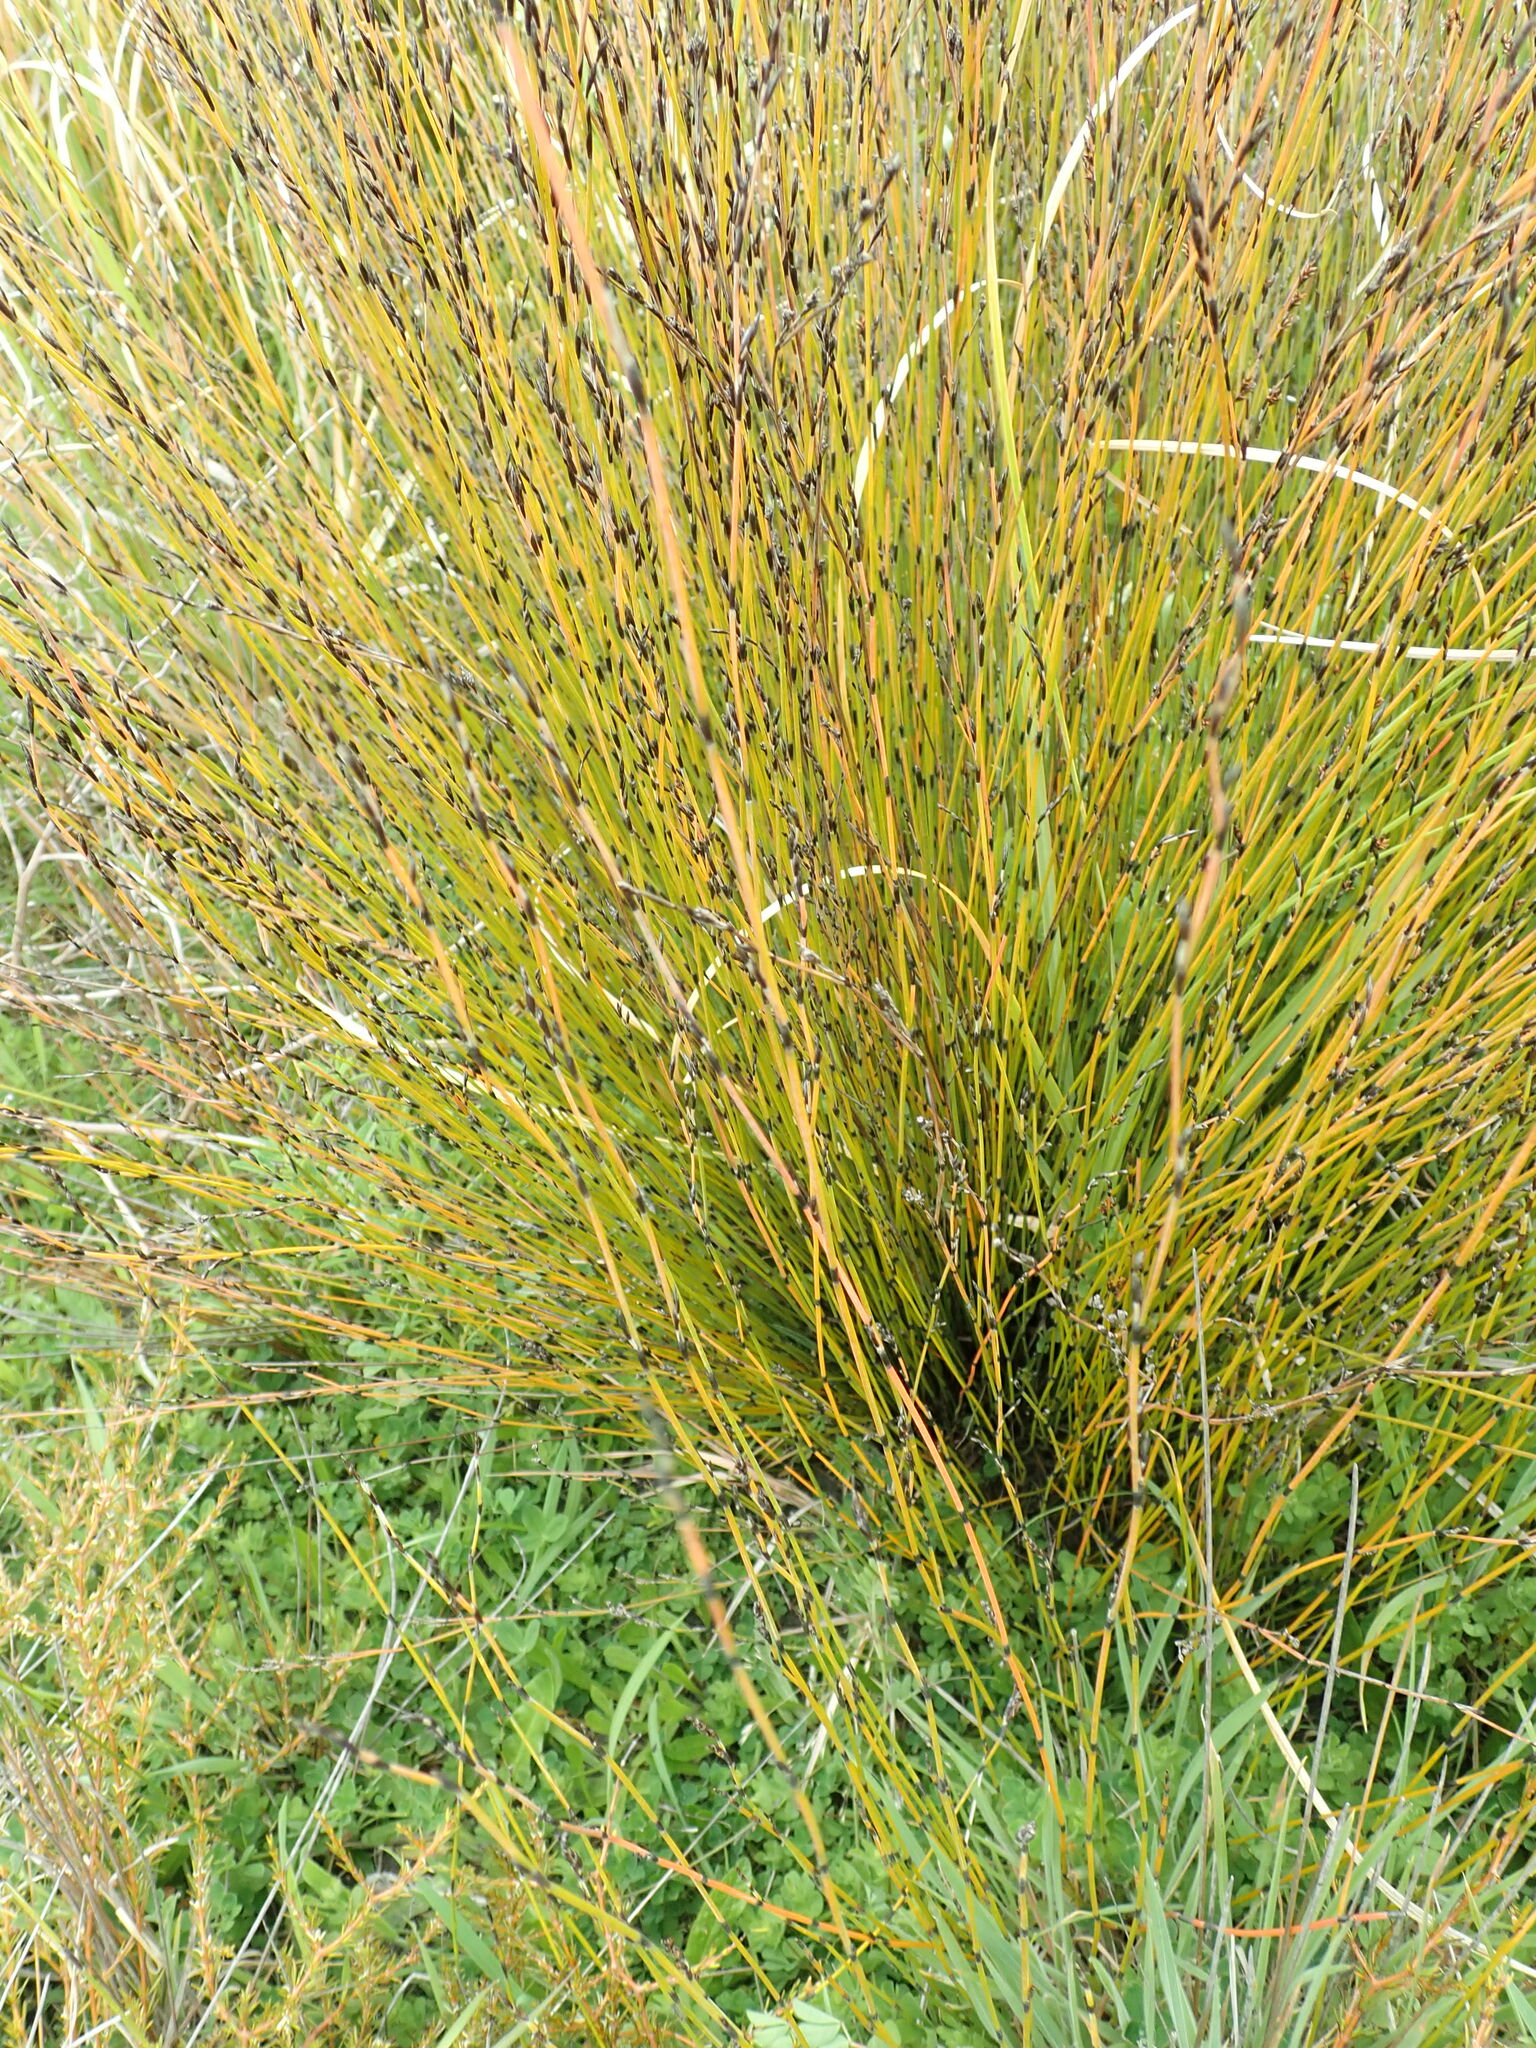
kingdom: Plantae
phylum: Tracheophyta
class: Liliopsida
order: Poales
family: Restionaceae
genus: Apodasmia
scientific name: Apodasmia similis
